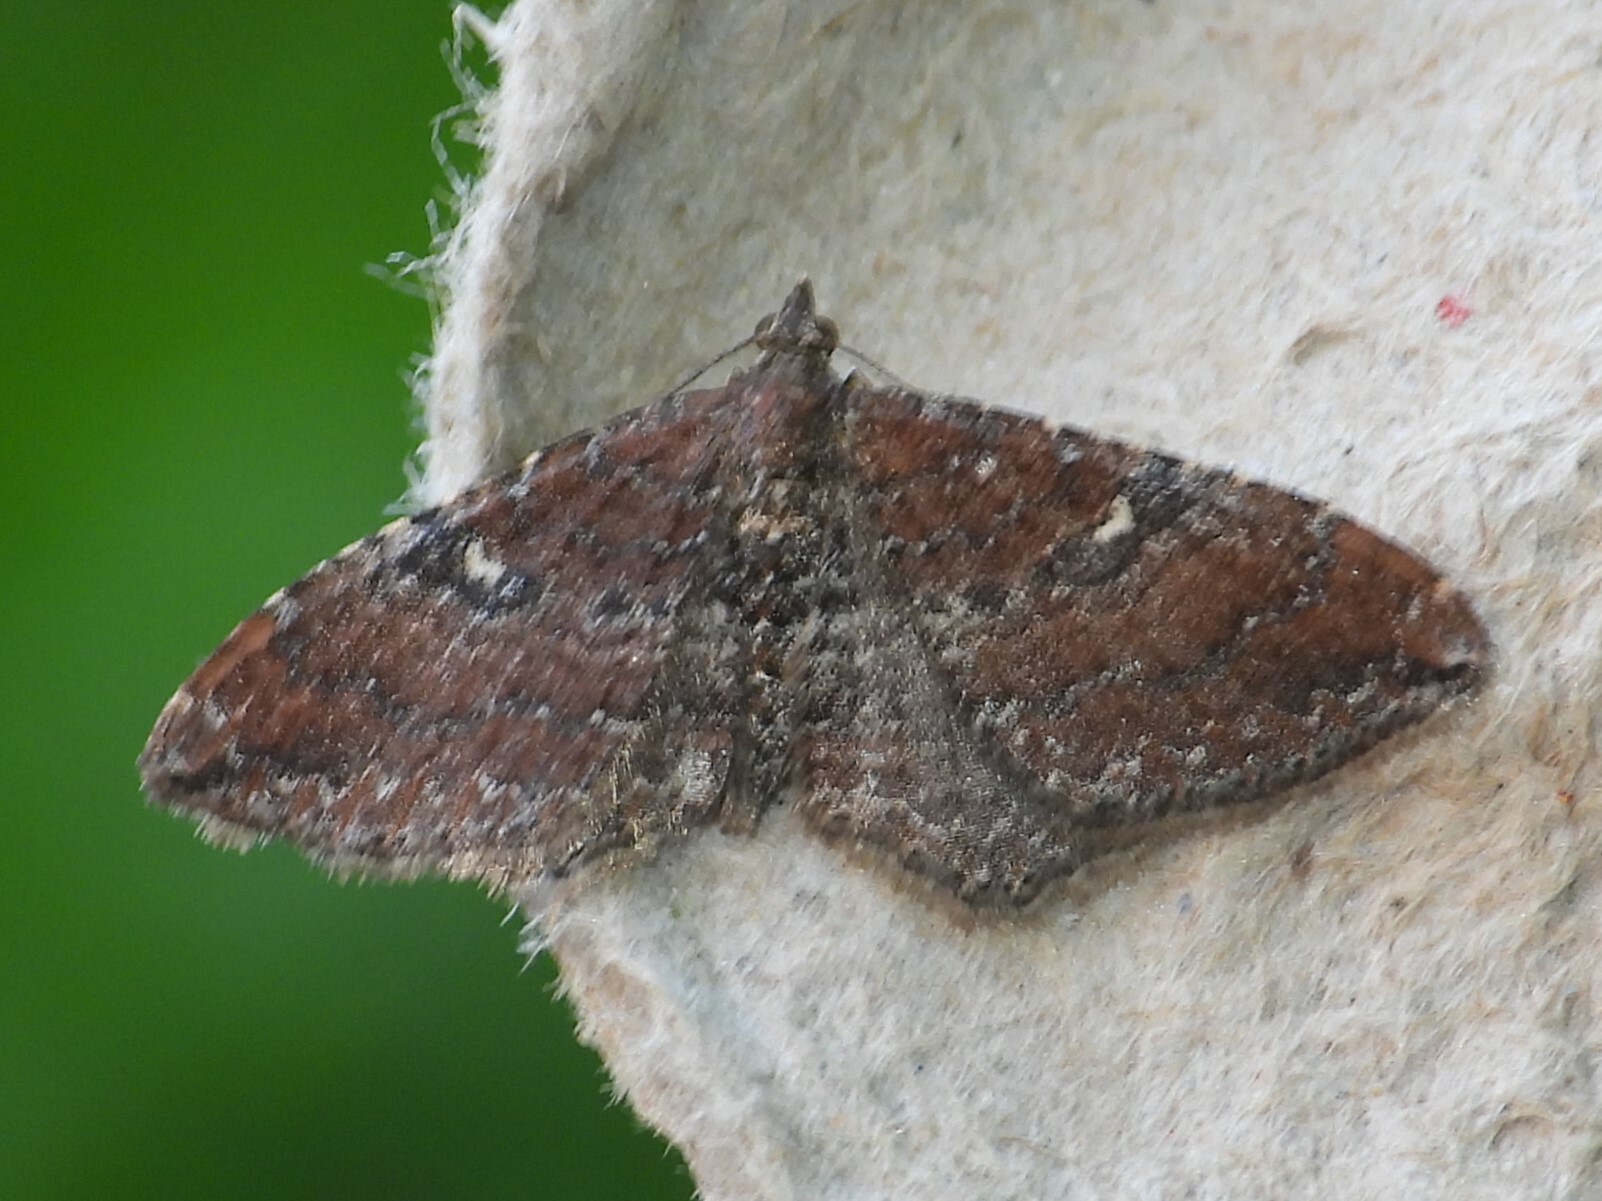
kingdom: Animalia
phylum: Arthropoda
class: Insecta
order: Lepidoptera
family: Geometridae
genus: Orthonama
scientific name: Orthonama obstipata
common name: The gem
